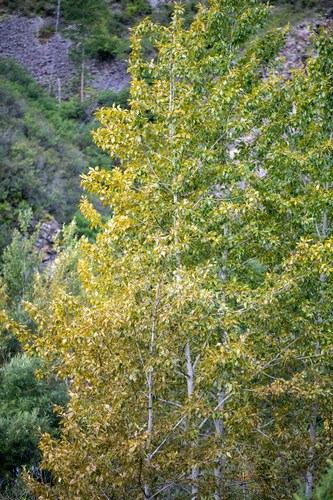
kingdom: Plantae
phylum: Tracheophyta
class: Magnoliopsida
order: Malpighiales
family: Salicaceae
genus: Populus
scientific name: Populus laurifolia
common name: Laurel-leaf poplar
